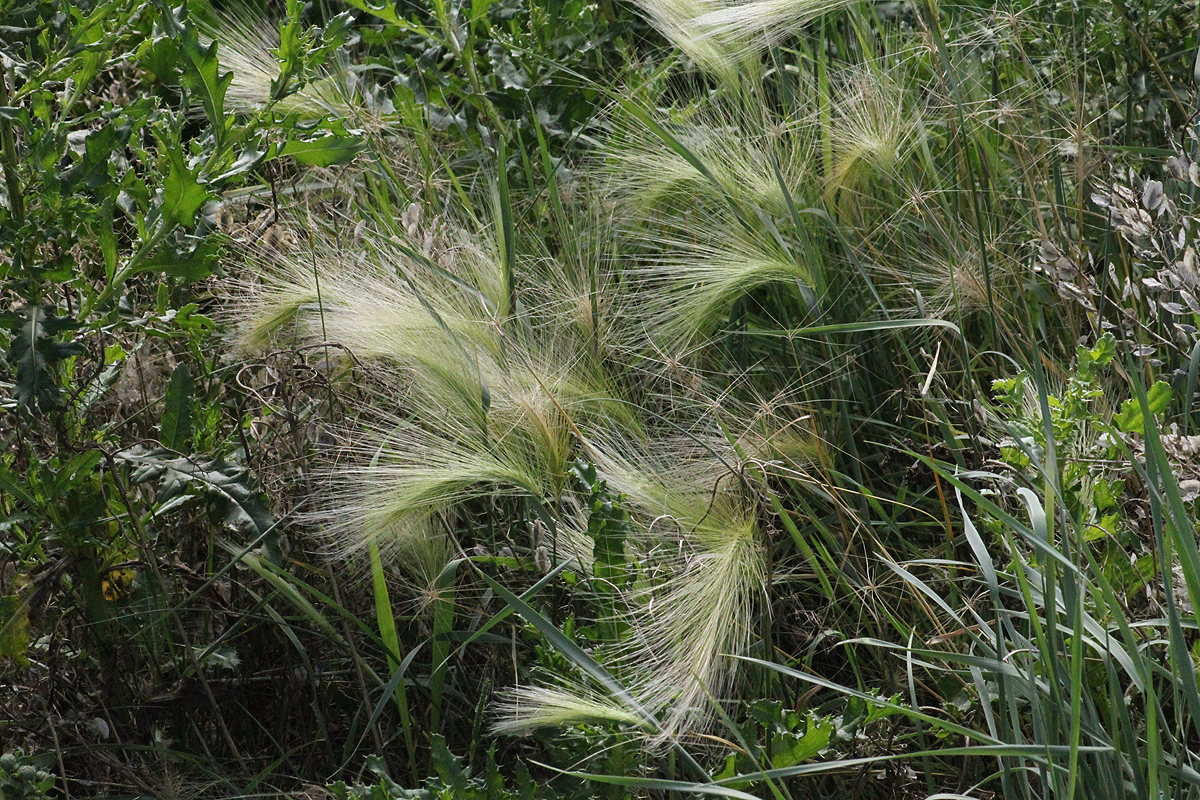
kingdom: Plantae
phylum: Tracheophyta
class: Liliopsida
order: Poales
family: Poaceae
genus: Hordeum
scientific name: Hordeum jubatum
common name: Foxtail barley
